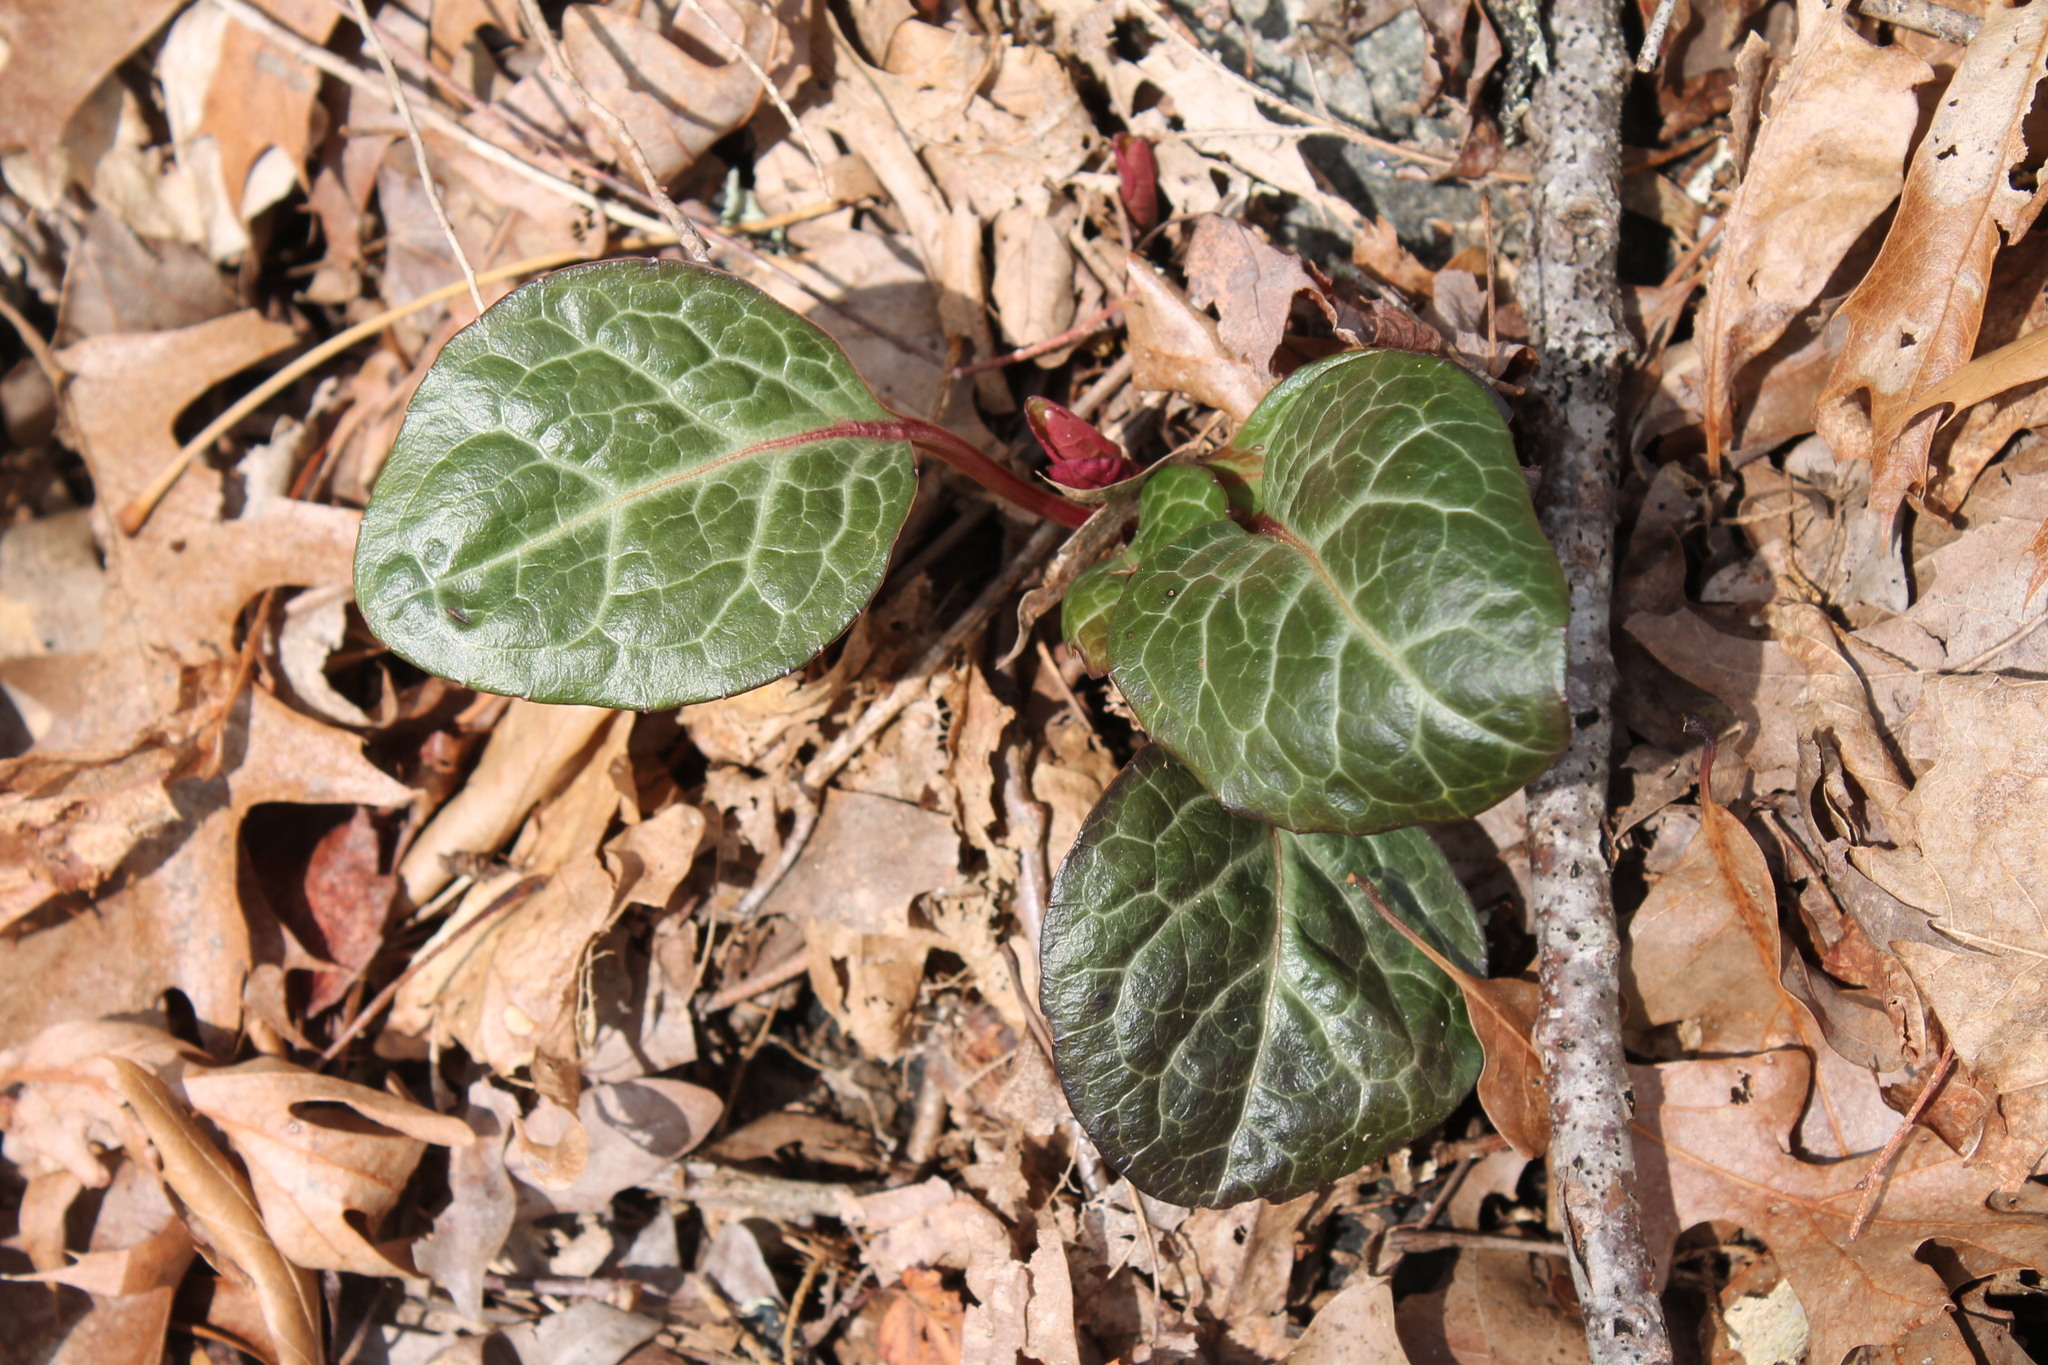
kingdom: Plantae
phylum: Tracheophyta
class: Magnoliopsida
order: Ericales
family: Ericaceae
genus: Pyrola
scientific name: Pyrola americana
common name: American wintergreen
